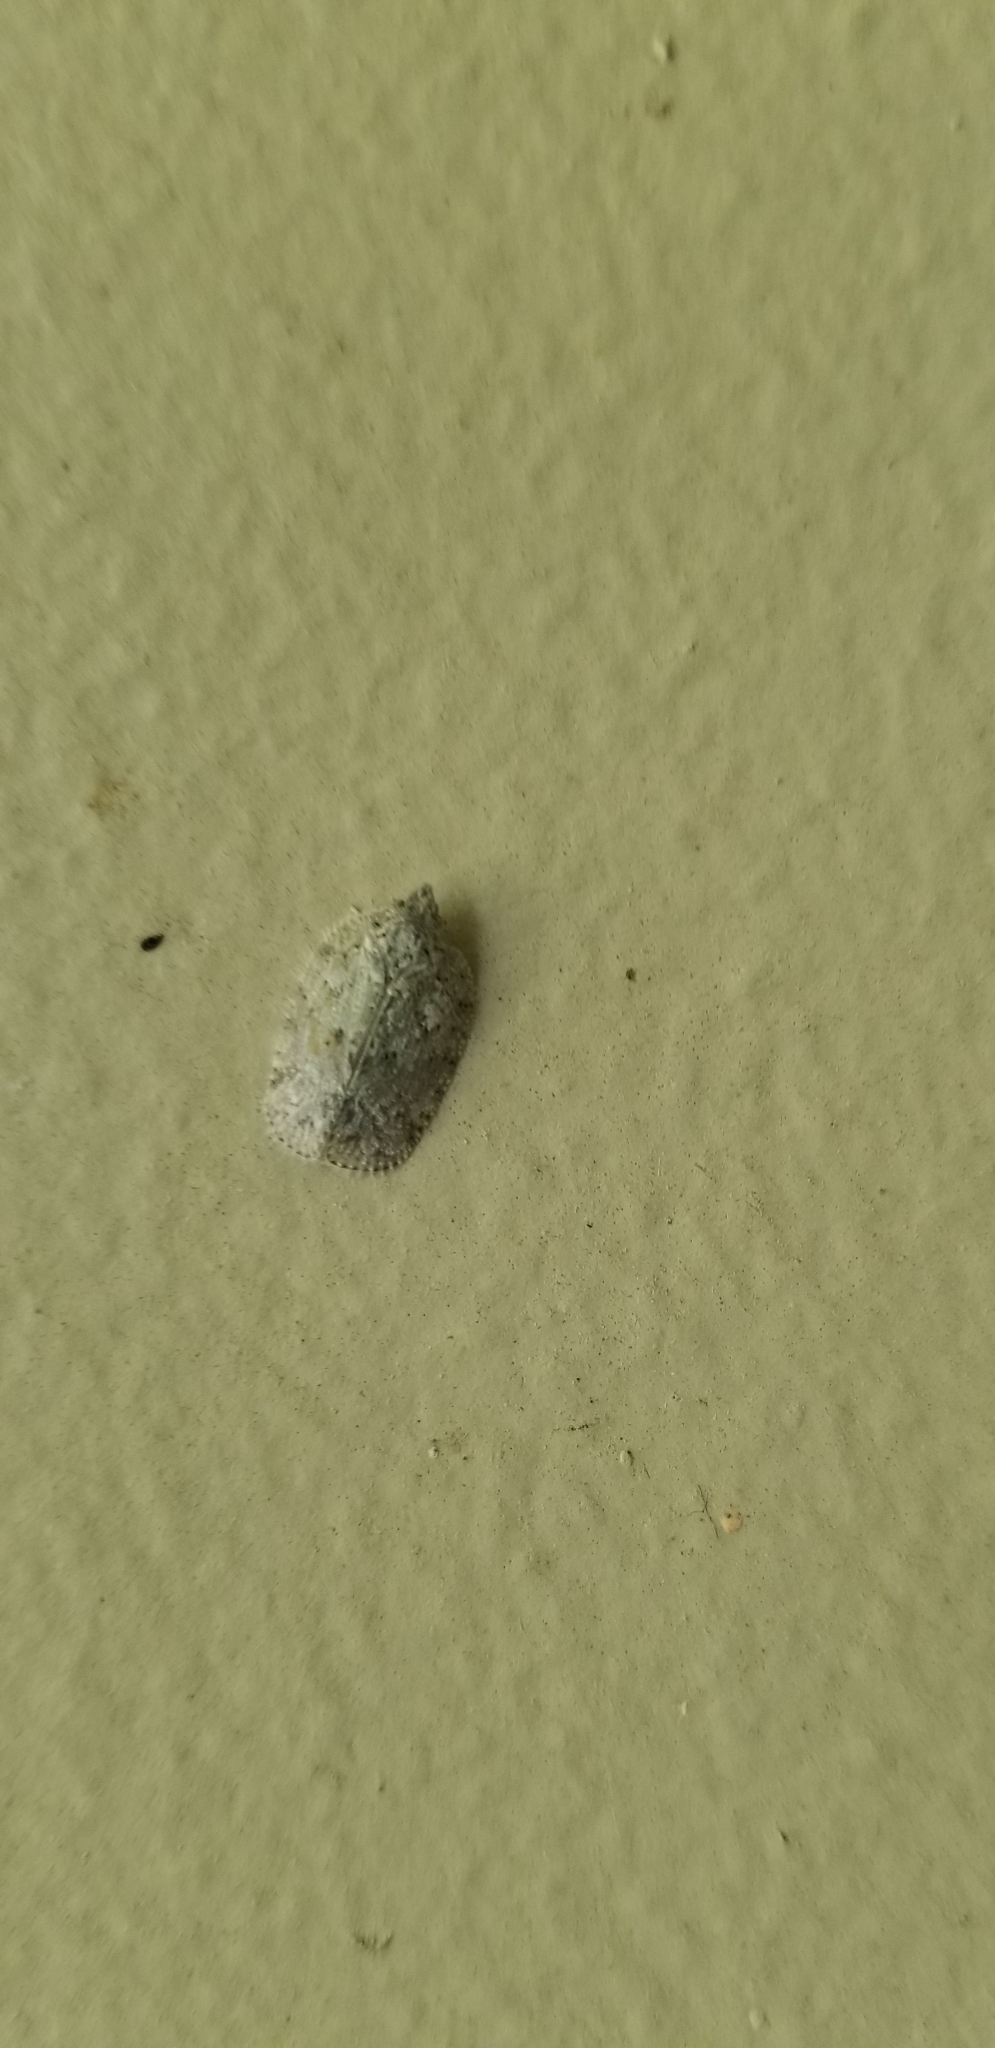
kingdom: Animalia
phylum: Arthropoda
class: Insecta
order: Hemiptera
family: Flatidae
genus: Flatoidinus
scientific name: Flatoidinus punctatus
